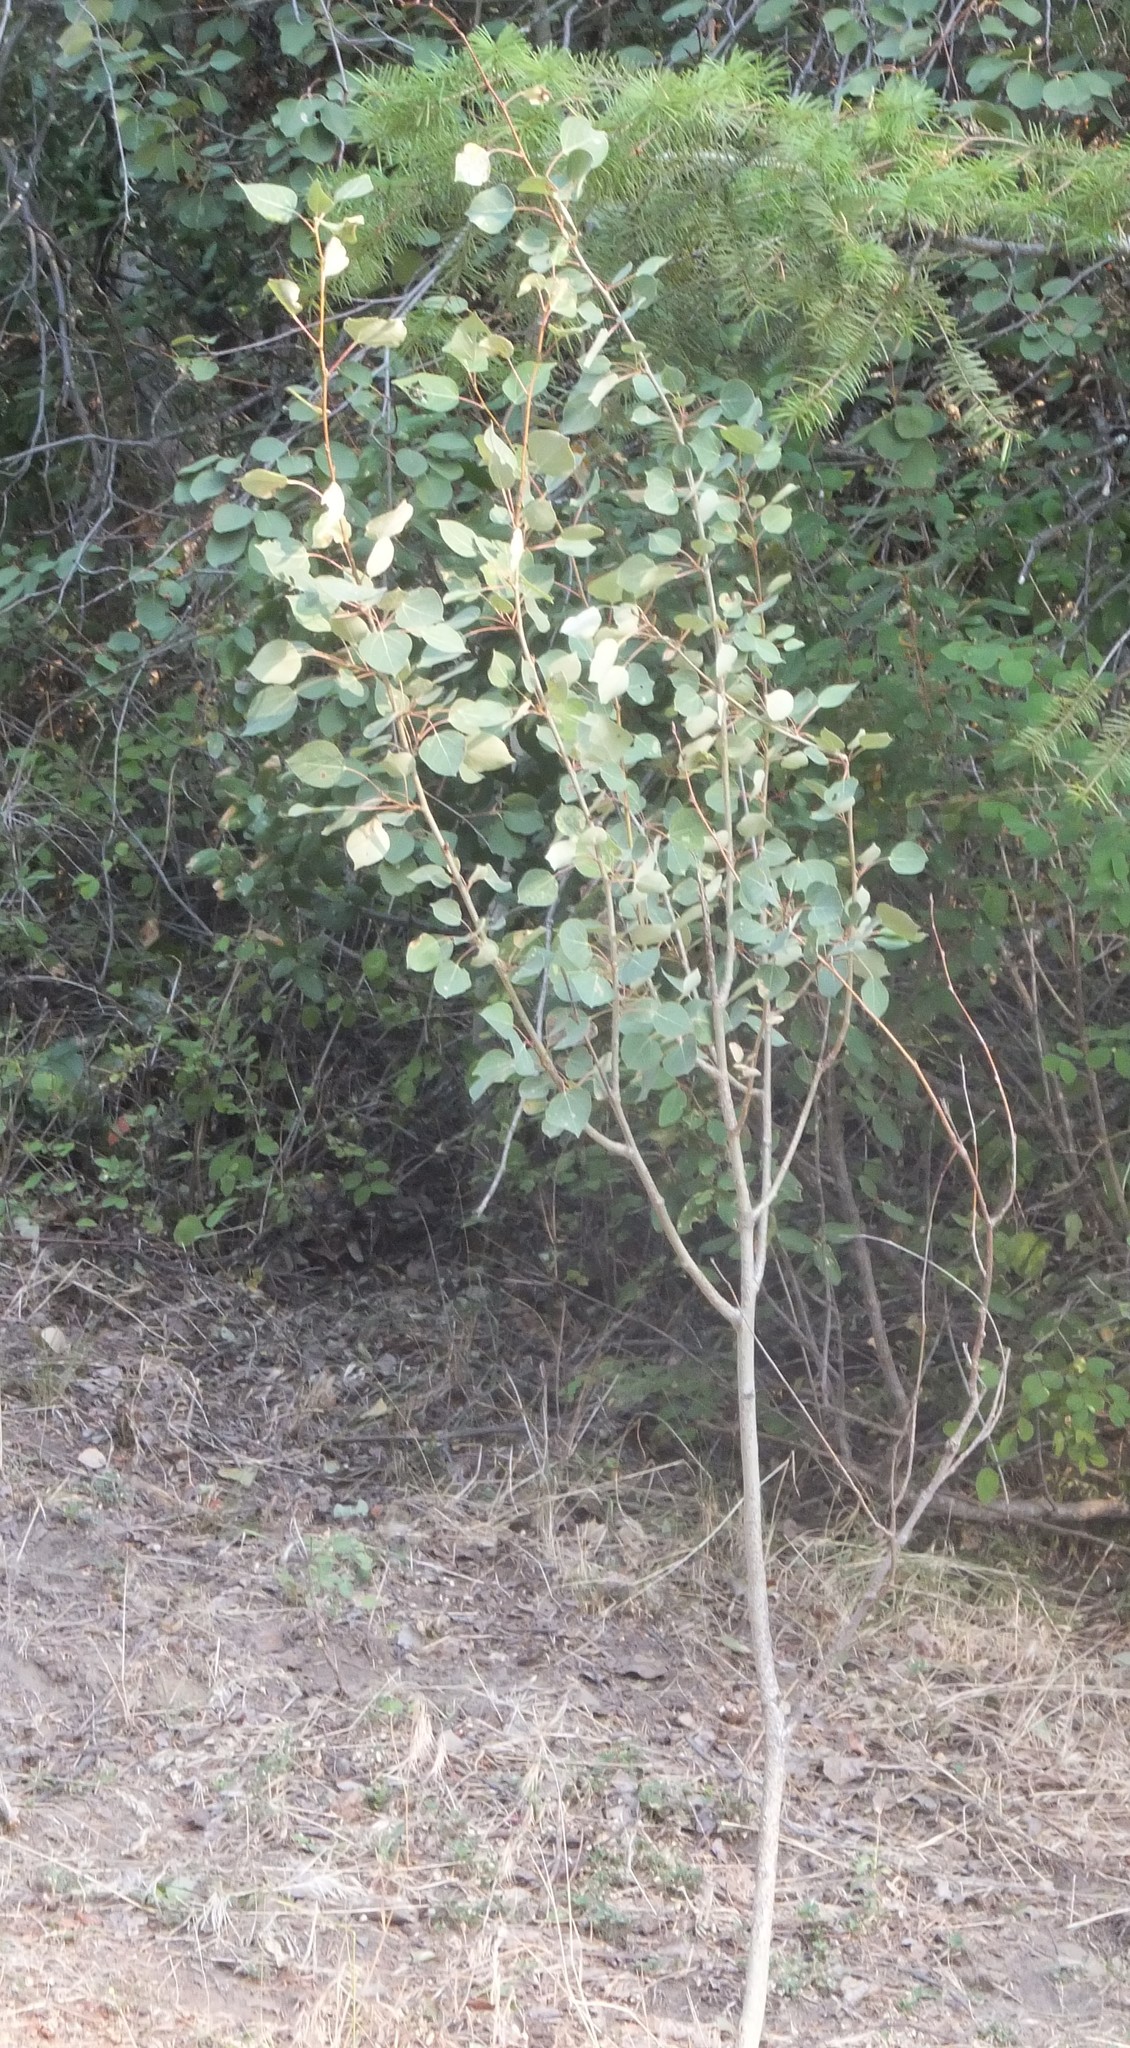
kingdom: Plantae
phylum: Tracheophyta
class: Magnoliopsida
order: Malpighiales
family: Salicaceae
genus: Populus
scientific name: Populus tremuloides
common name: Quaking aspen
